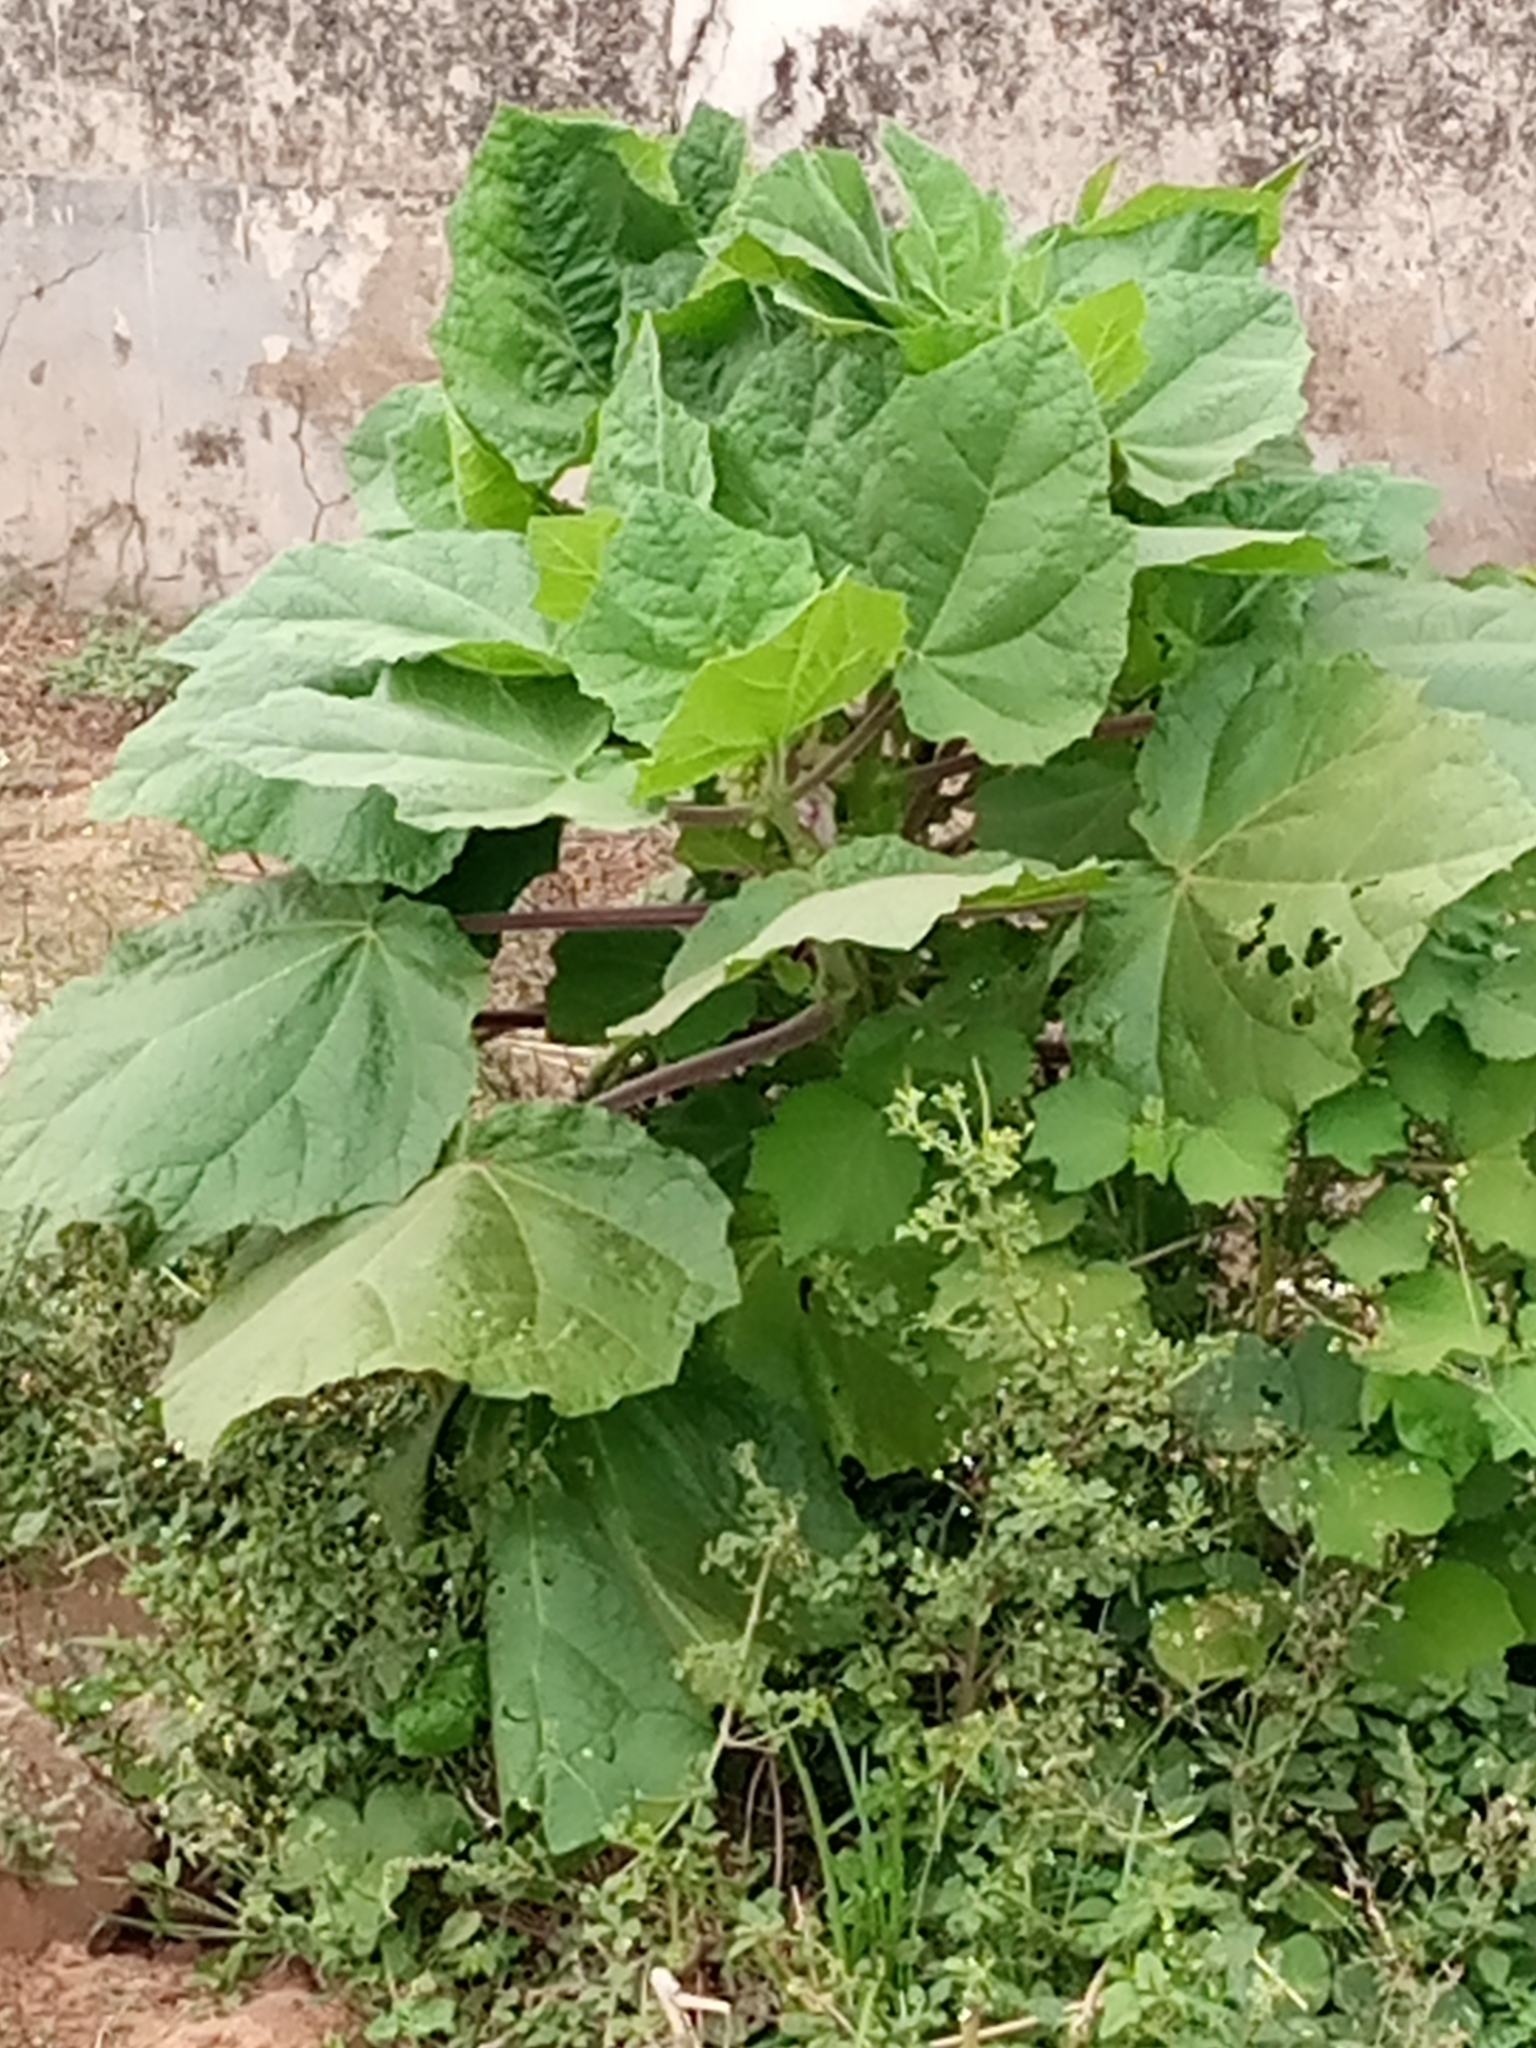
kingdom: Plantae
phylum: Tracheophyta
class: Magnoliopsida
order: Lamiales
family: Martyniaceae
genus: Martynia
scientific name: Martynia annua
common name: Tiger's-claw
